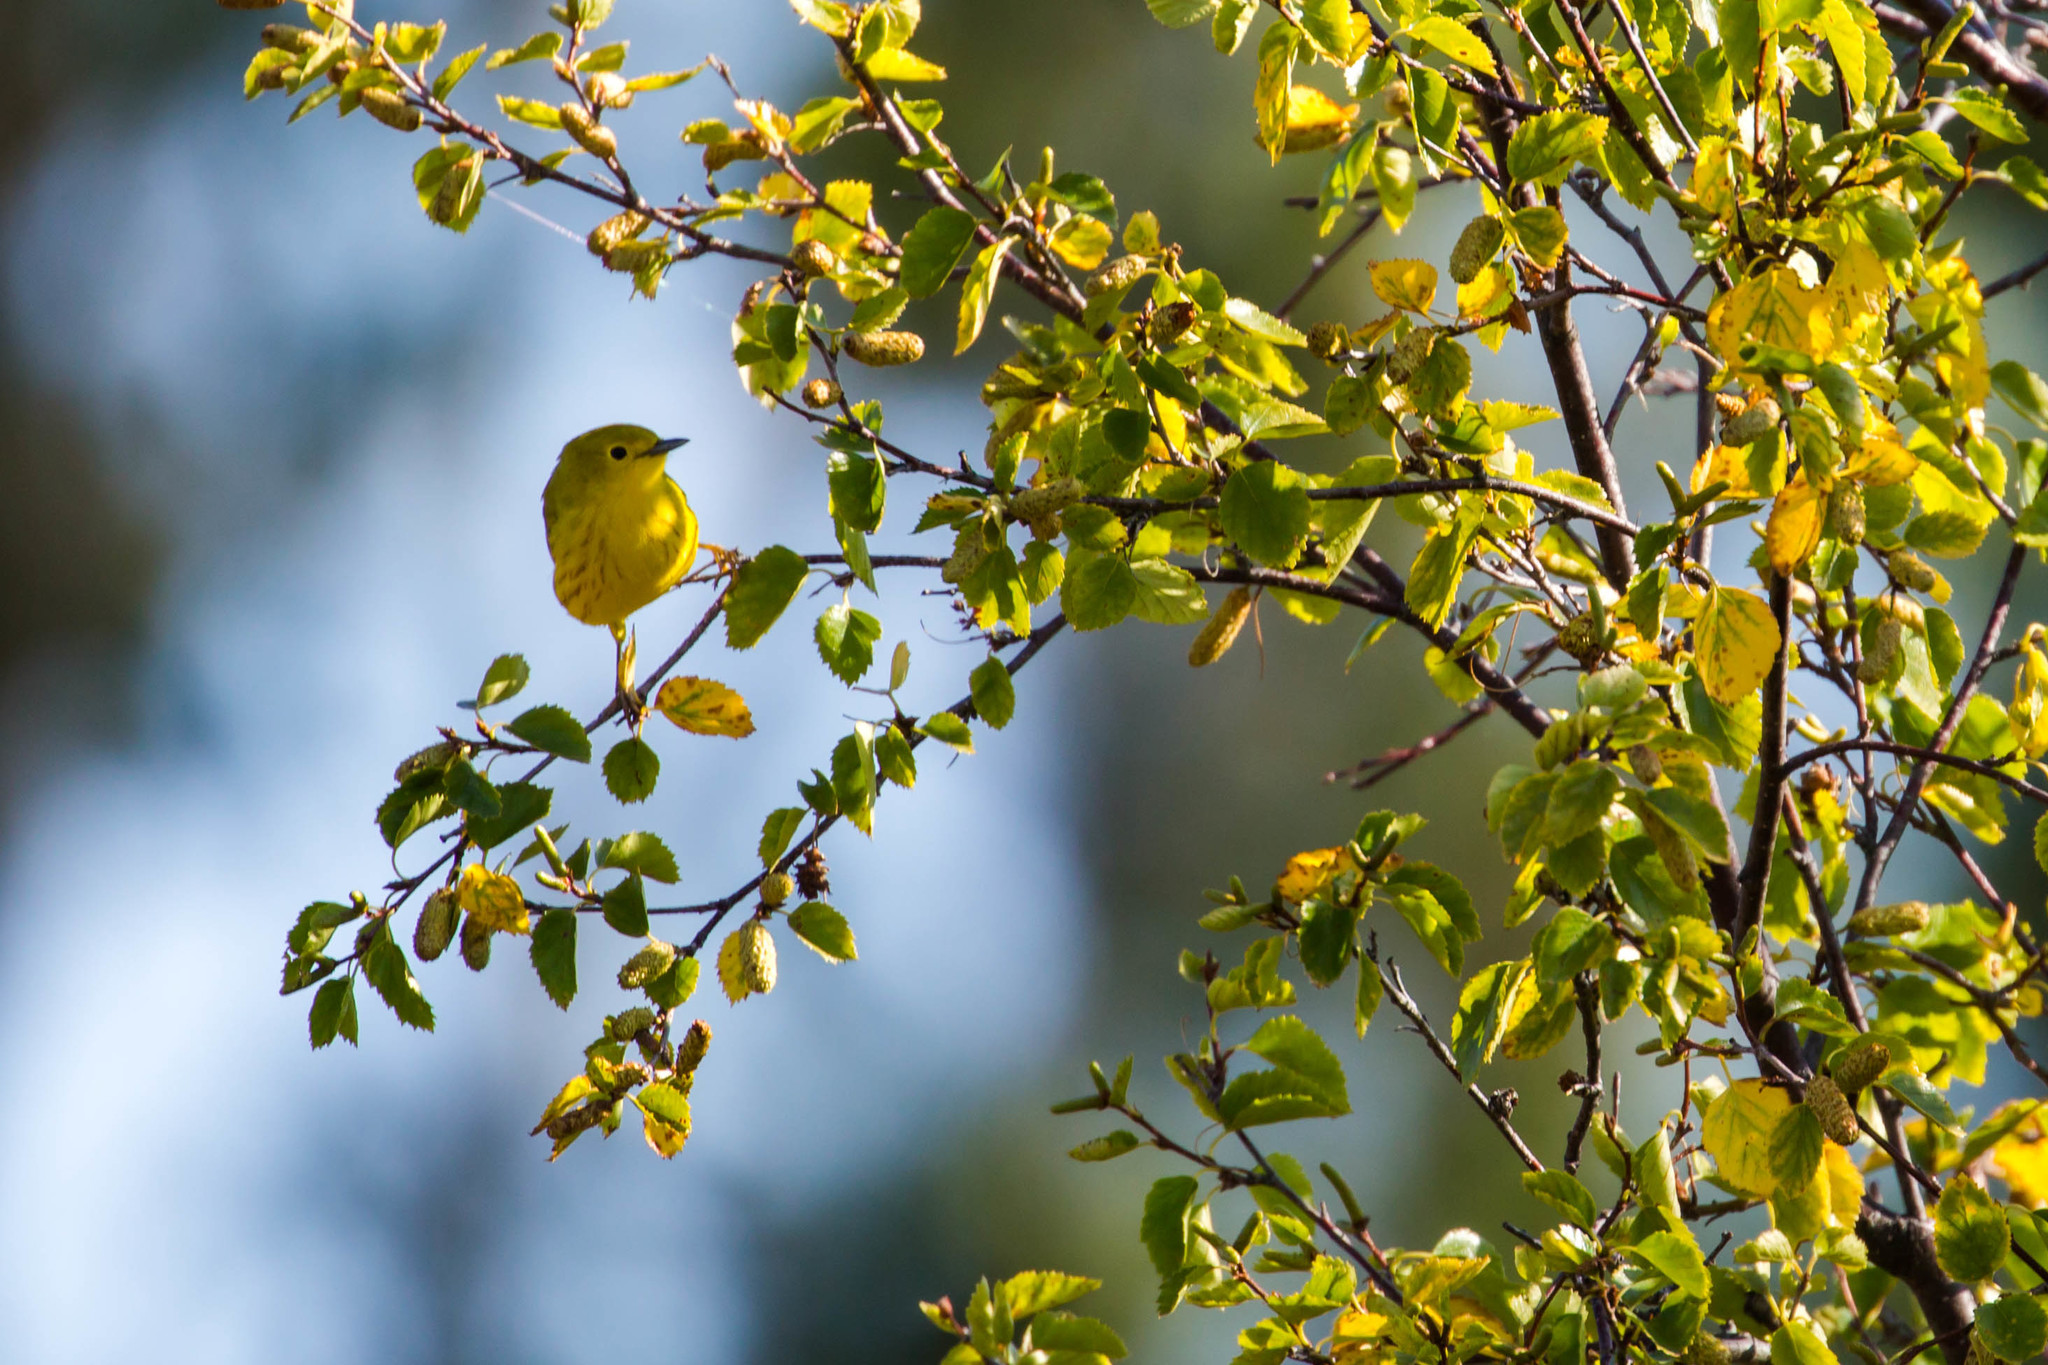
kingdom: Animalia
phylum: Chordata
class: Aves
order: Passeriformes
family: Parulidae
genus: Setophaga
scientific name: Setophaga petechia
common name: Yellow warbler
